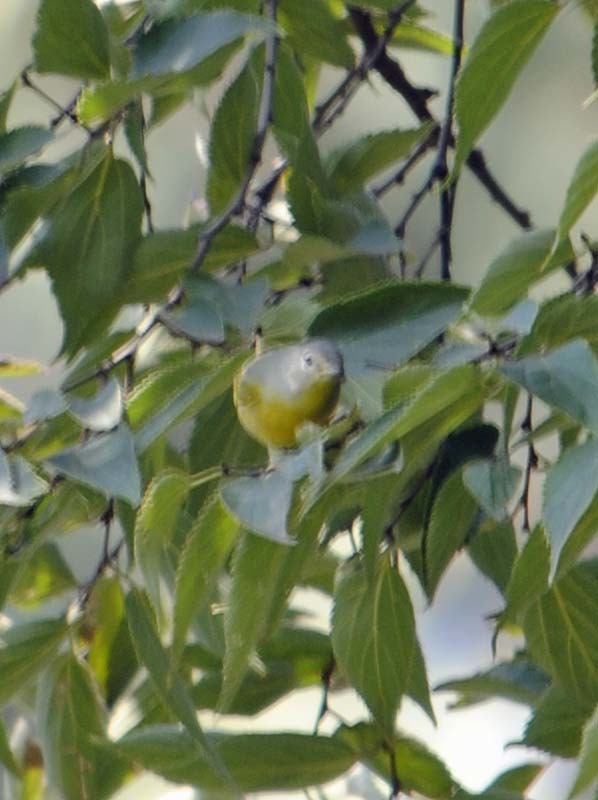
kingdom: Animalia
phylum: Chordata
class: Aves
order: Passeriformes
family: Parulidae
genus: Leiothlypis
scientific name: Leiothlypis ruficapilla
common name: Nashville warbler
